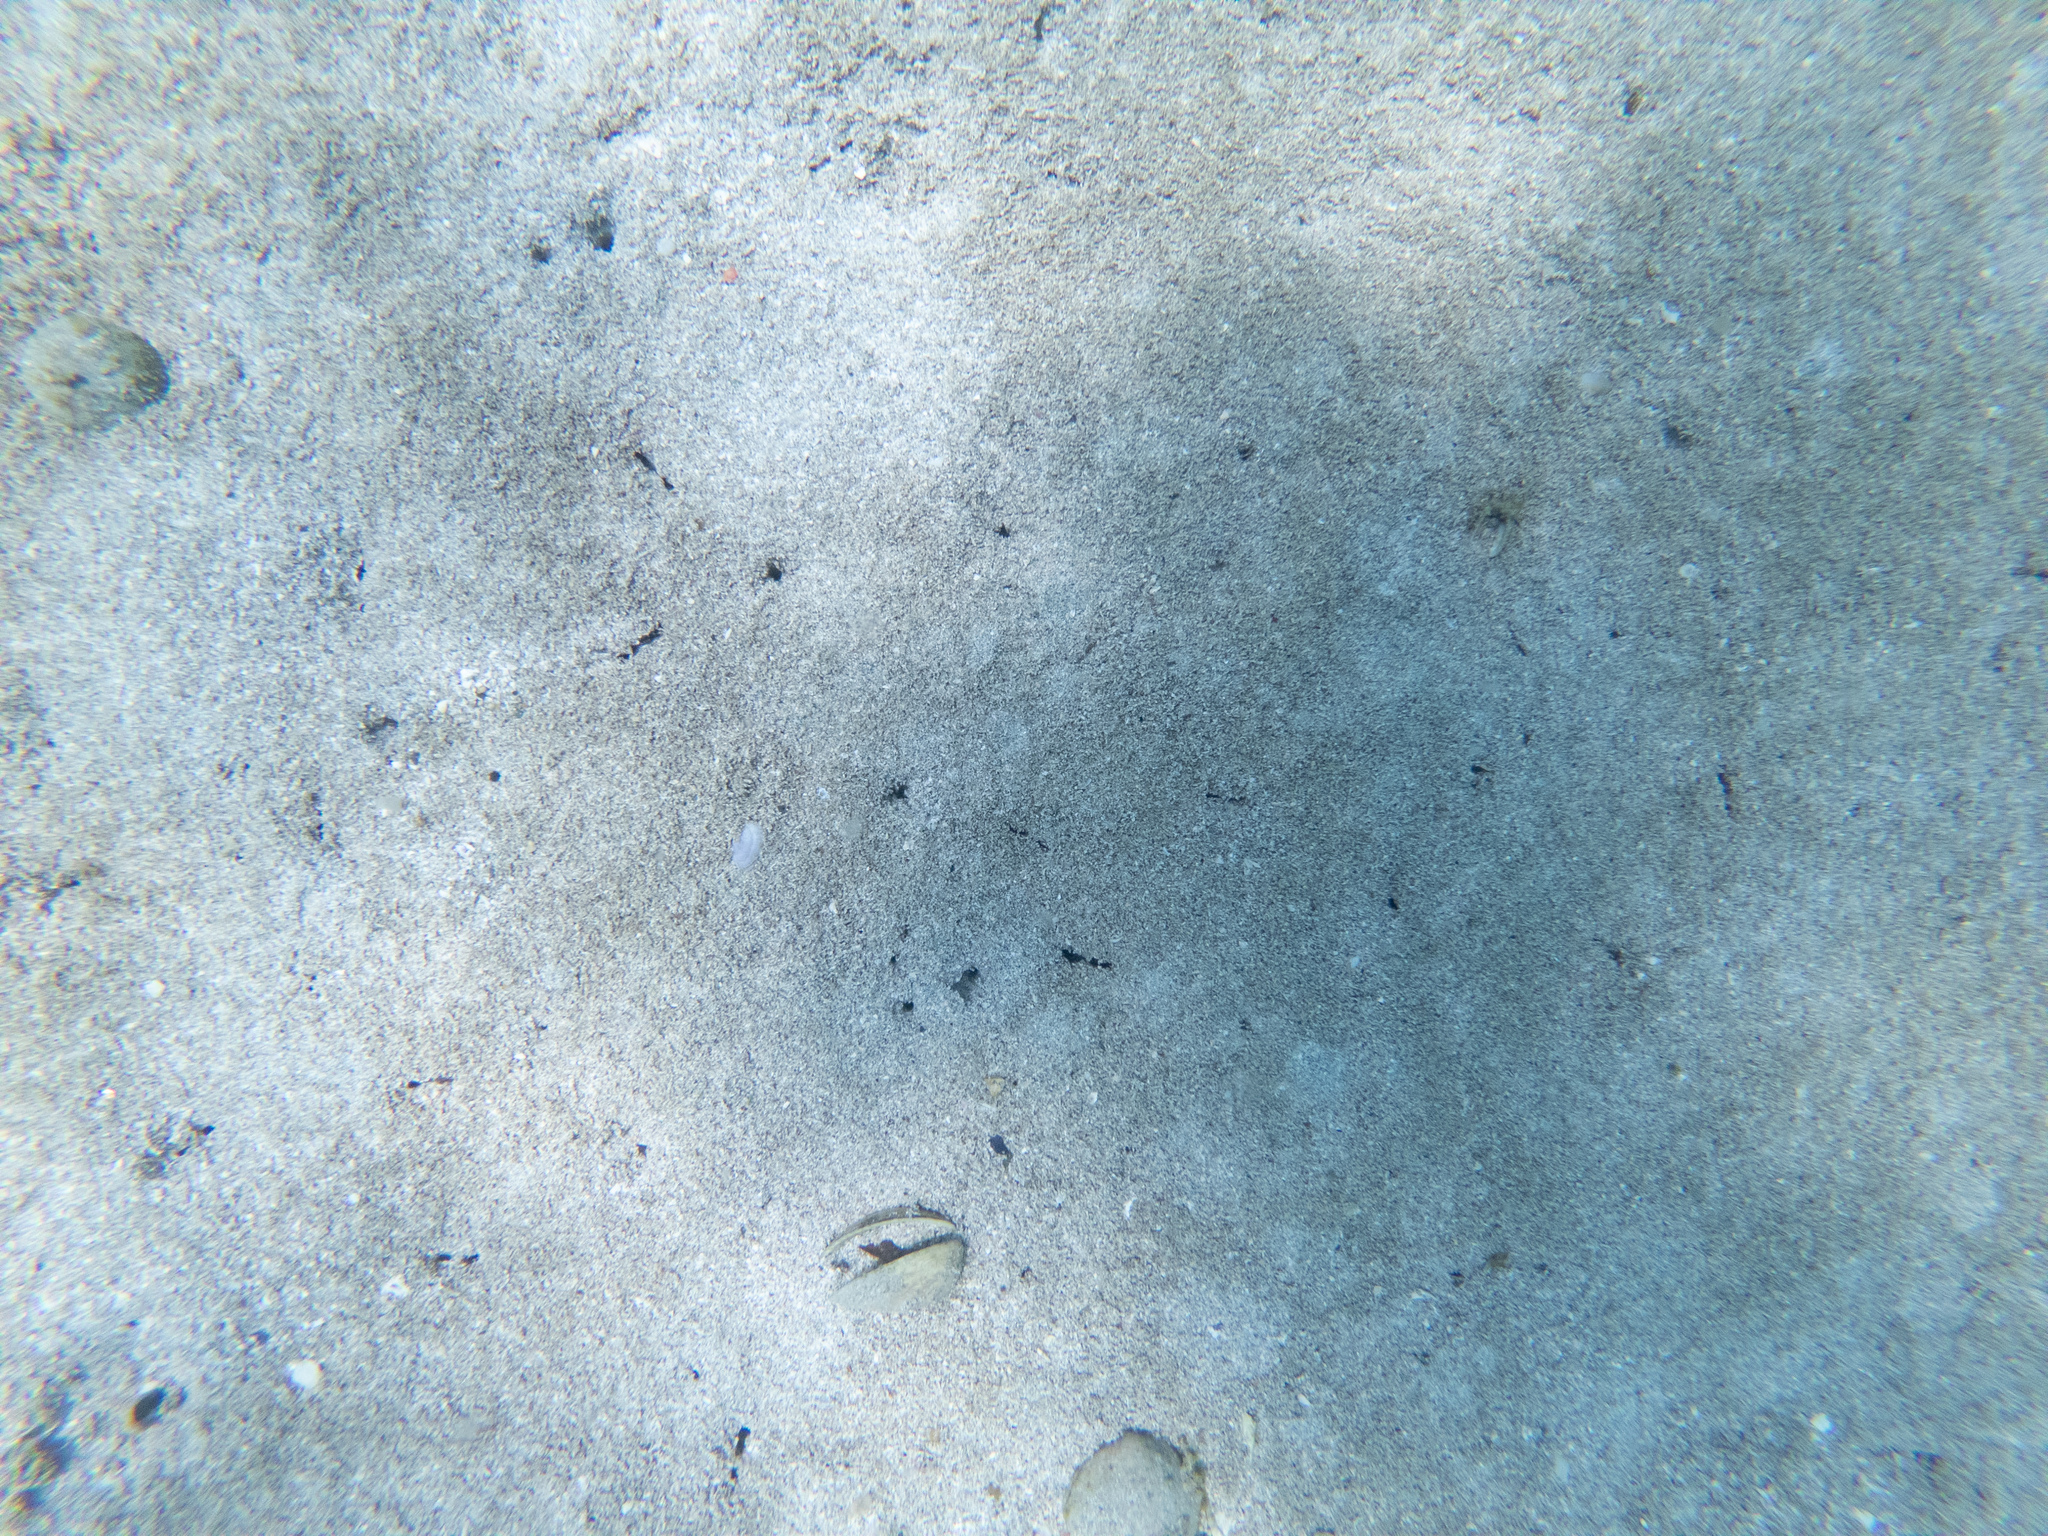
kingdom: Animalia
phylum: Mollusca
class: Bivalvia
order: Arcida
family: Glycymerididae
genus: Tucetona
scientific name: Tucetona laticostata
